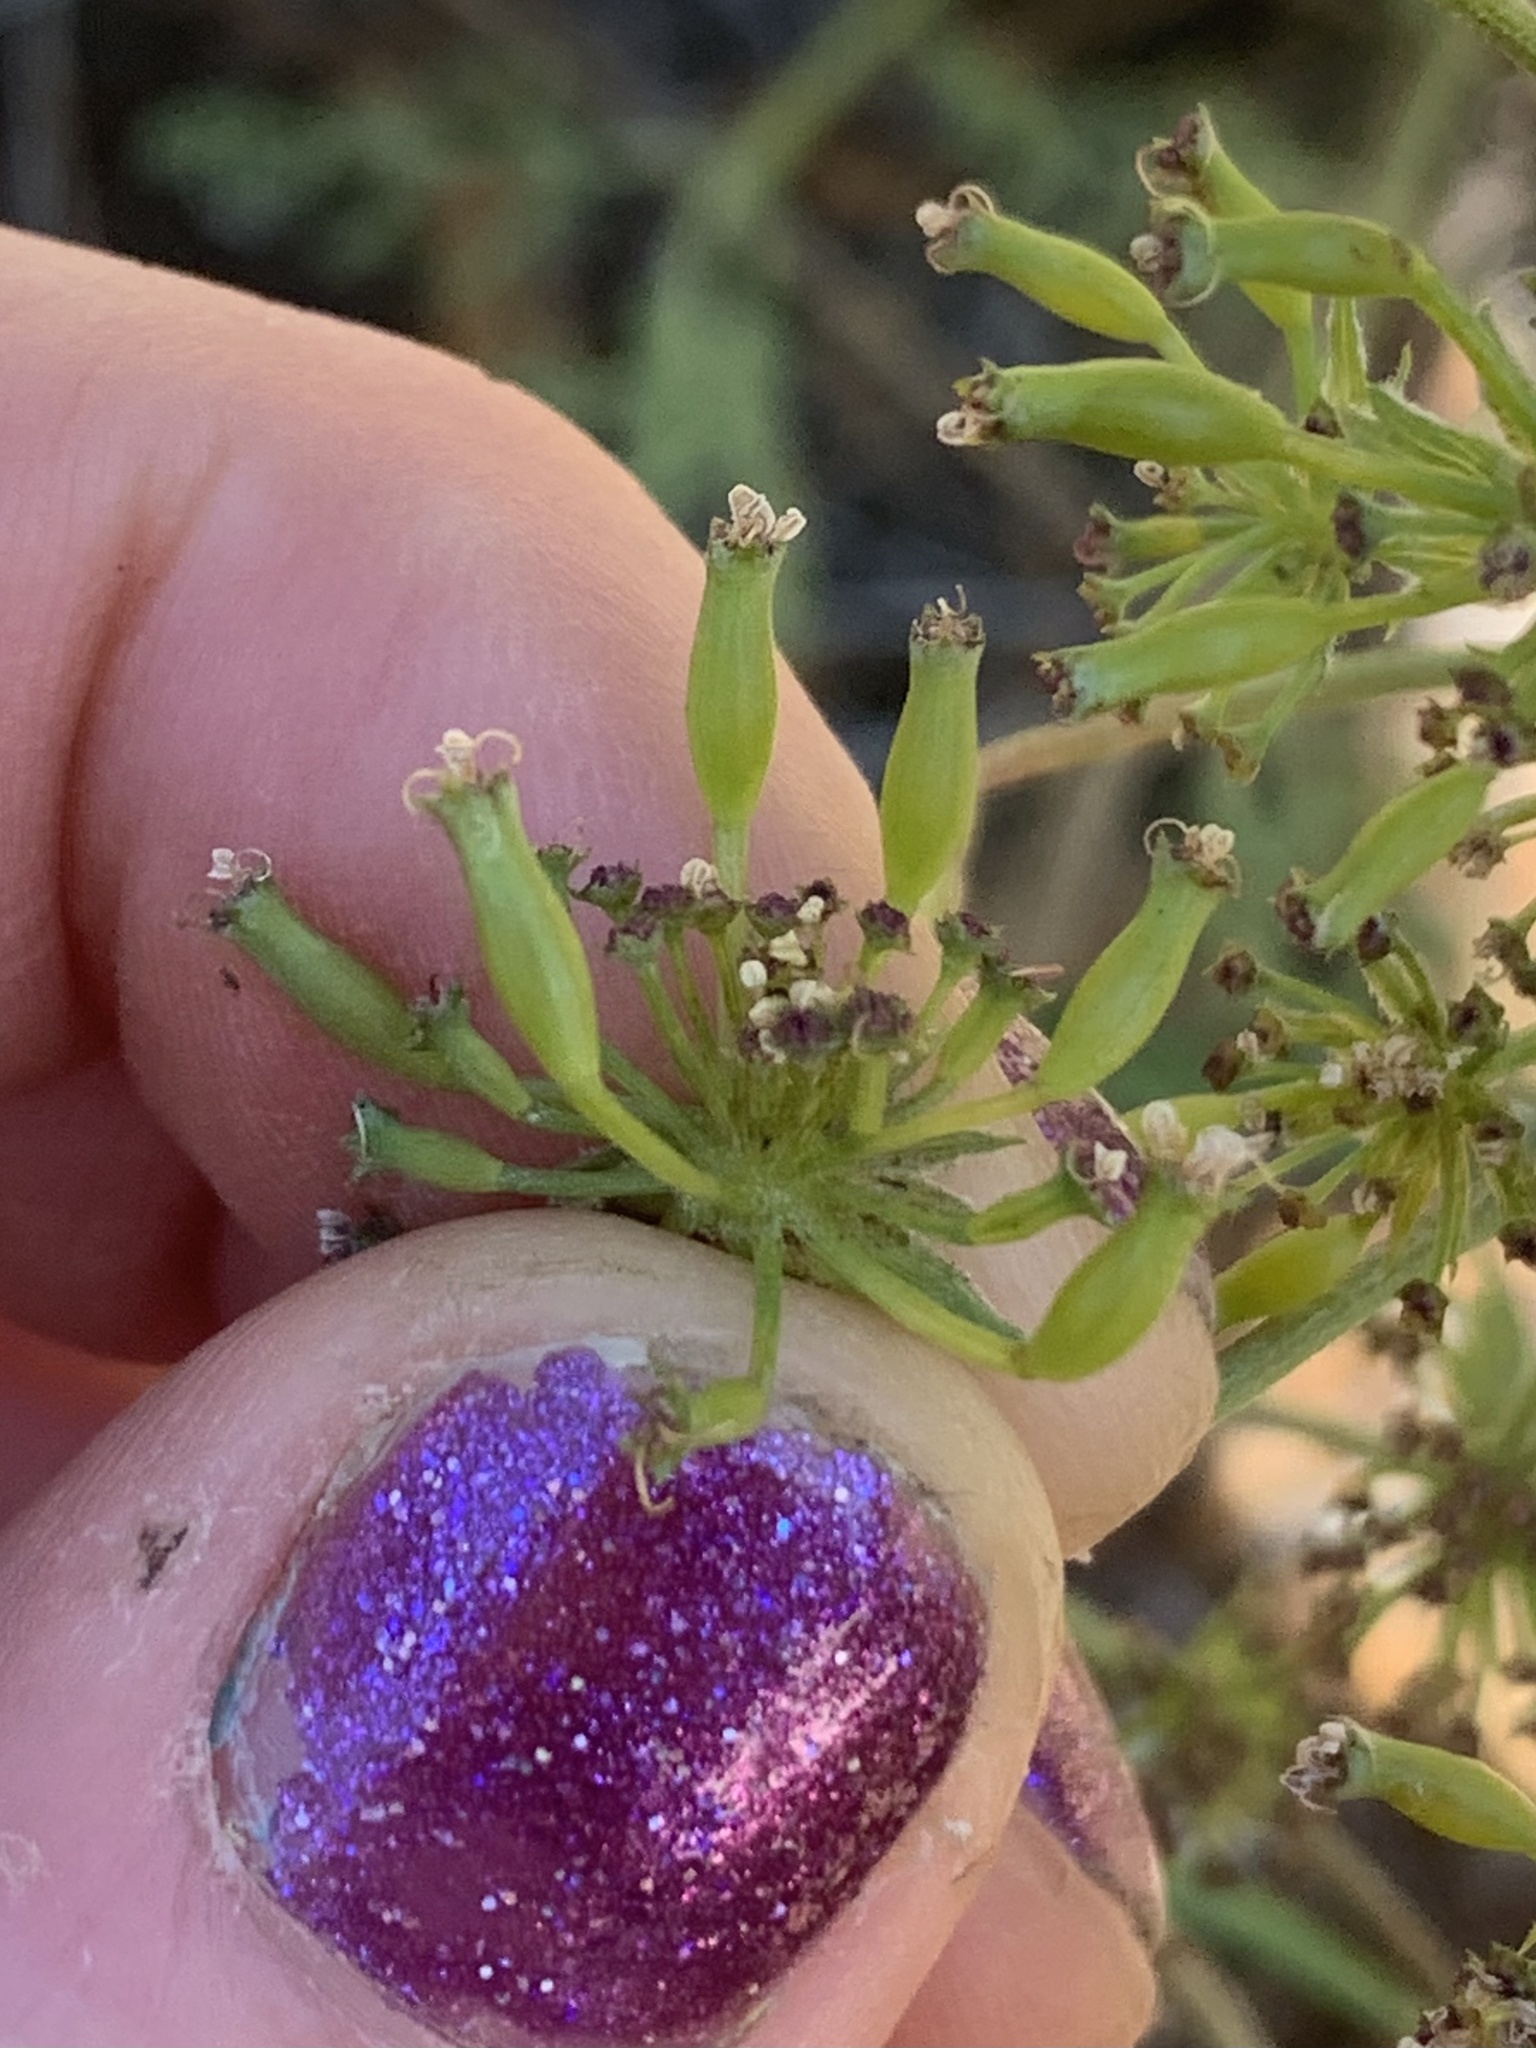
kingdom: Plantae
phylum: Tracheophyta
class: Magnoliopsida
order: Apiales
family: Apiaceae
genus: Lomatium
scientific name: Lomatium macrocarpum
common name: Big-seed biscuitroot
